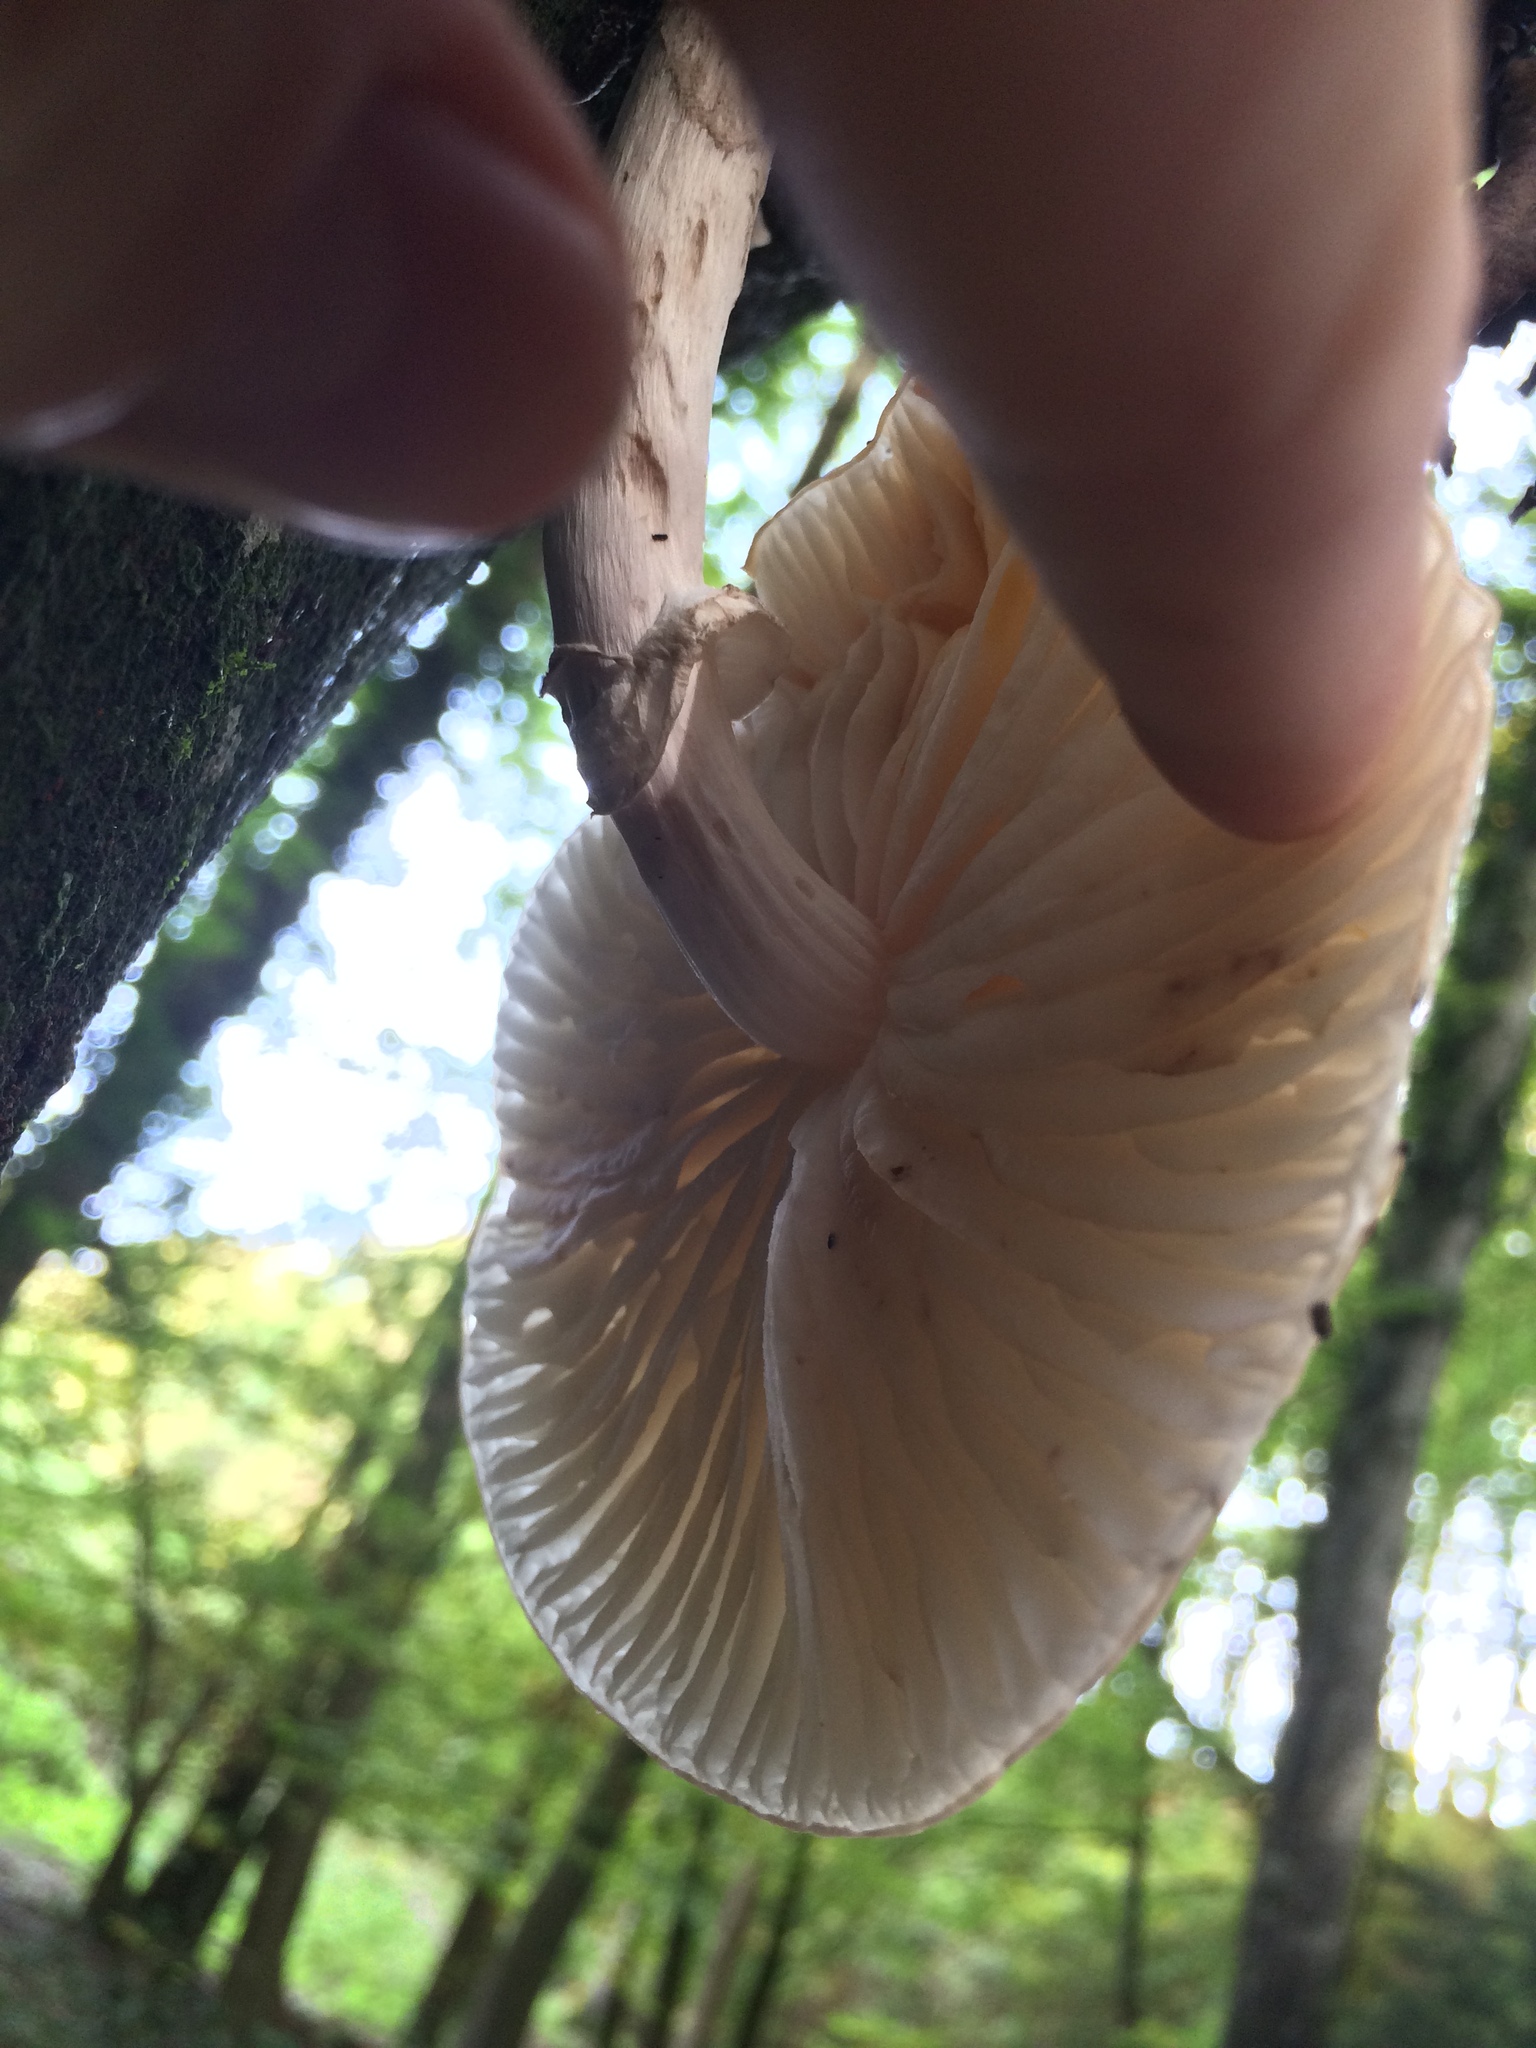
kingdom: Fungi
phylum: Basidiomycota
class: Agaricomycetes
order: Agaricales
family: Physalacriaceae
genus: Mucidula
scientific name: Mucidula mucida
